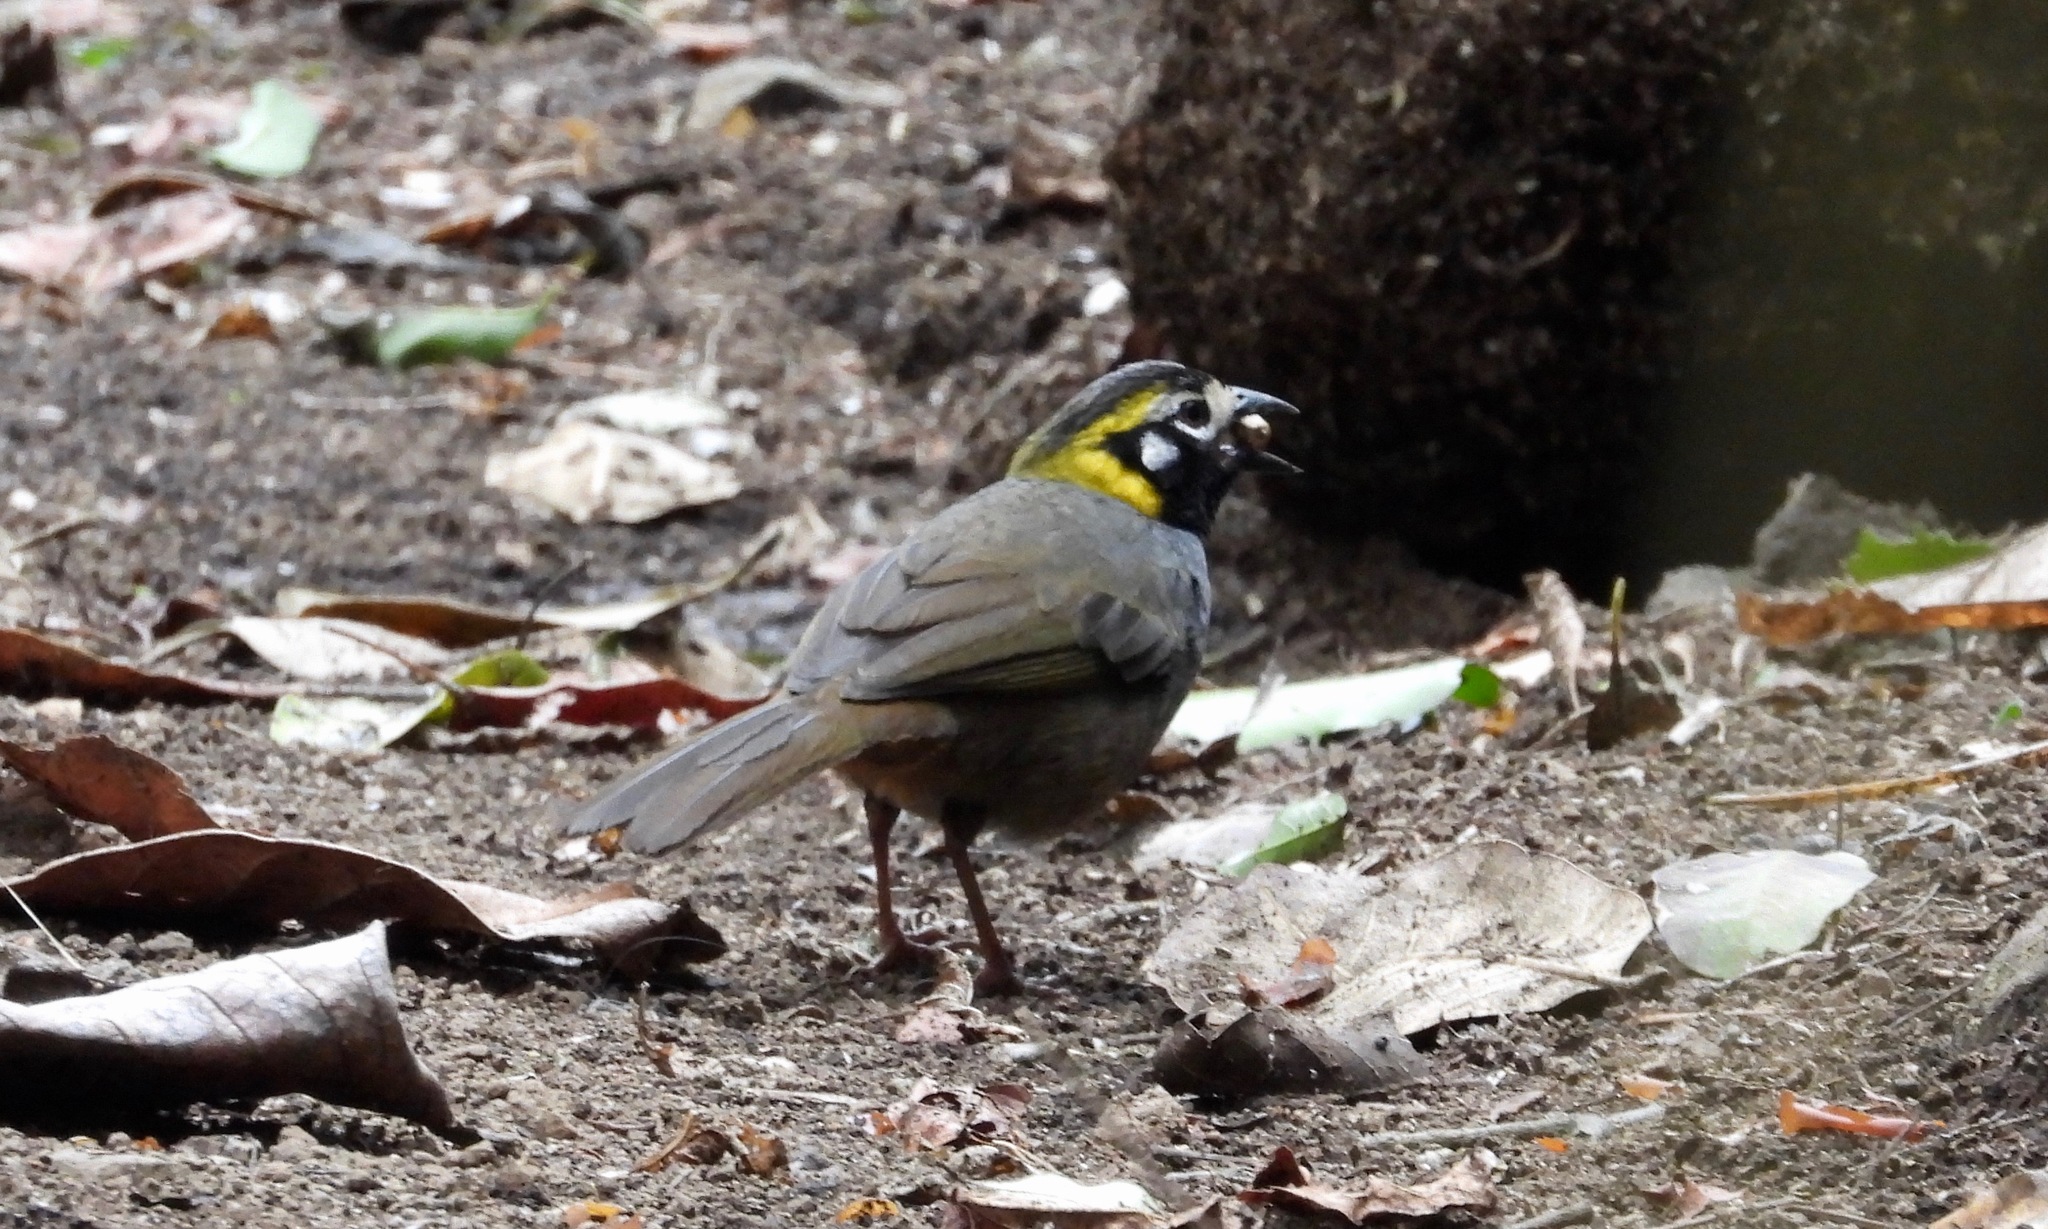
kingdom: Animalia
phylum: Chordata
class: Aves
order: Passeriformes
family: Passerellidae
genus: Melozone
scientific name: Melozone leucotis
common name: White-eared ground-sparrow
